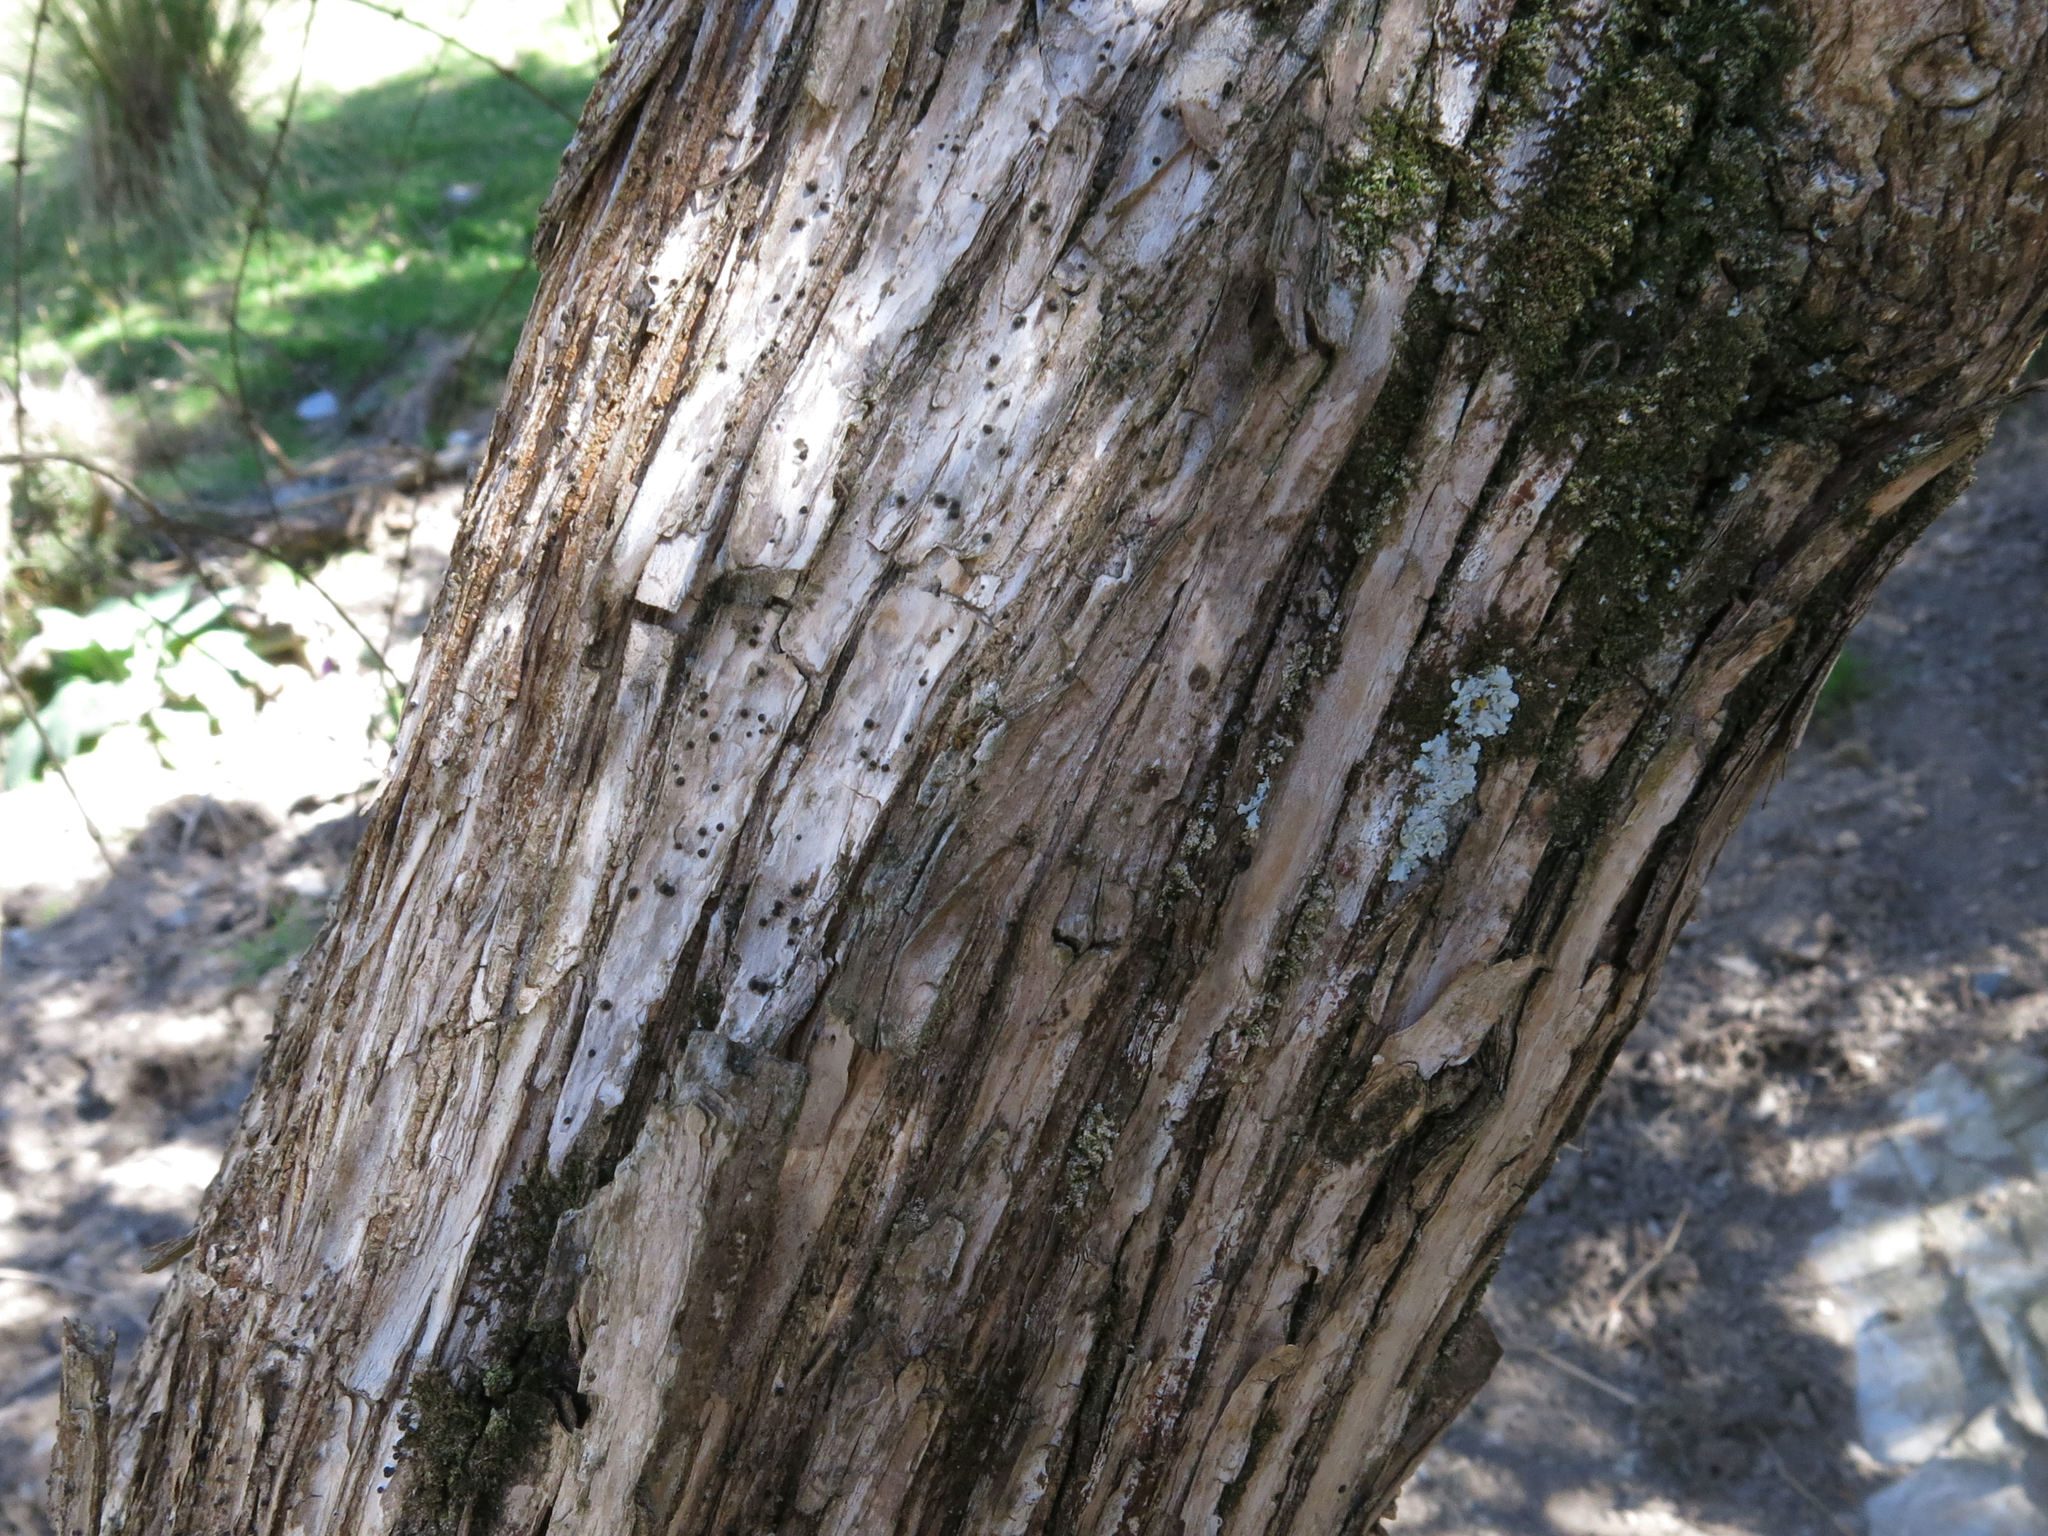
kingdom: Plantae
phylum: Tracheophyta
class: Magnoliopsida
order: Asterales
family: Asteraceae
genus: Olearia
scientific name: Olearia lineata
